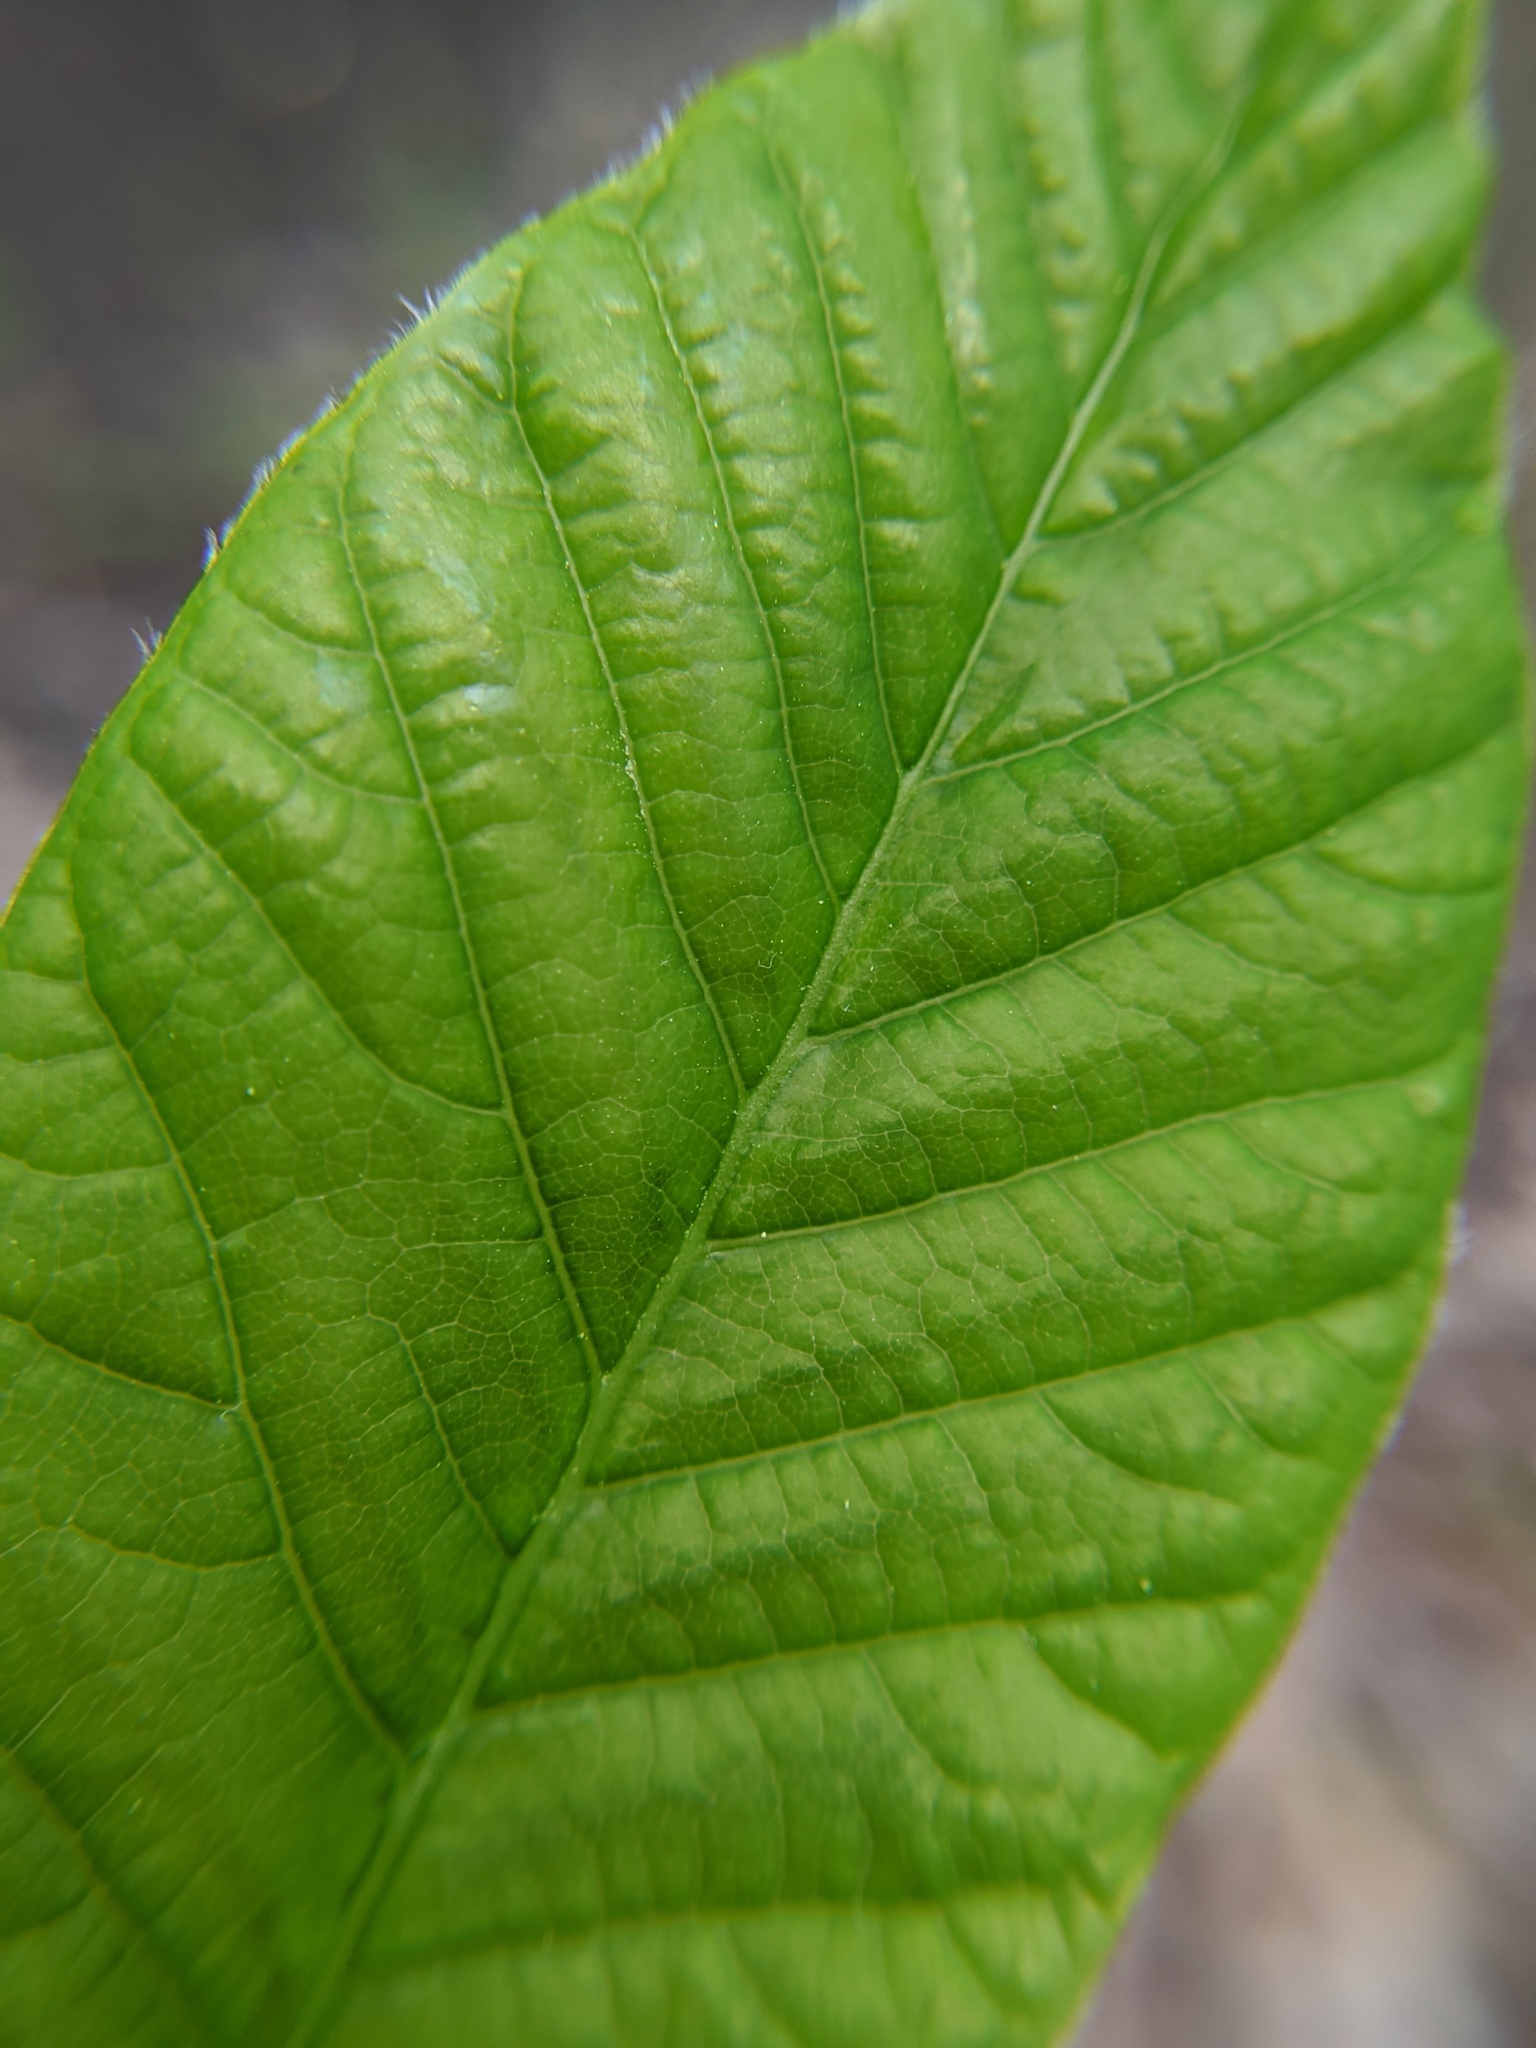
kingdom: Plantae
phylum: Tracheophyta
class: Magnoliopsida
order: Magnoliales
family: Magnoliaceae
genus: Magnolia
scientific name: Magnolia acuminata
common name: Cucumber magnolia
